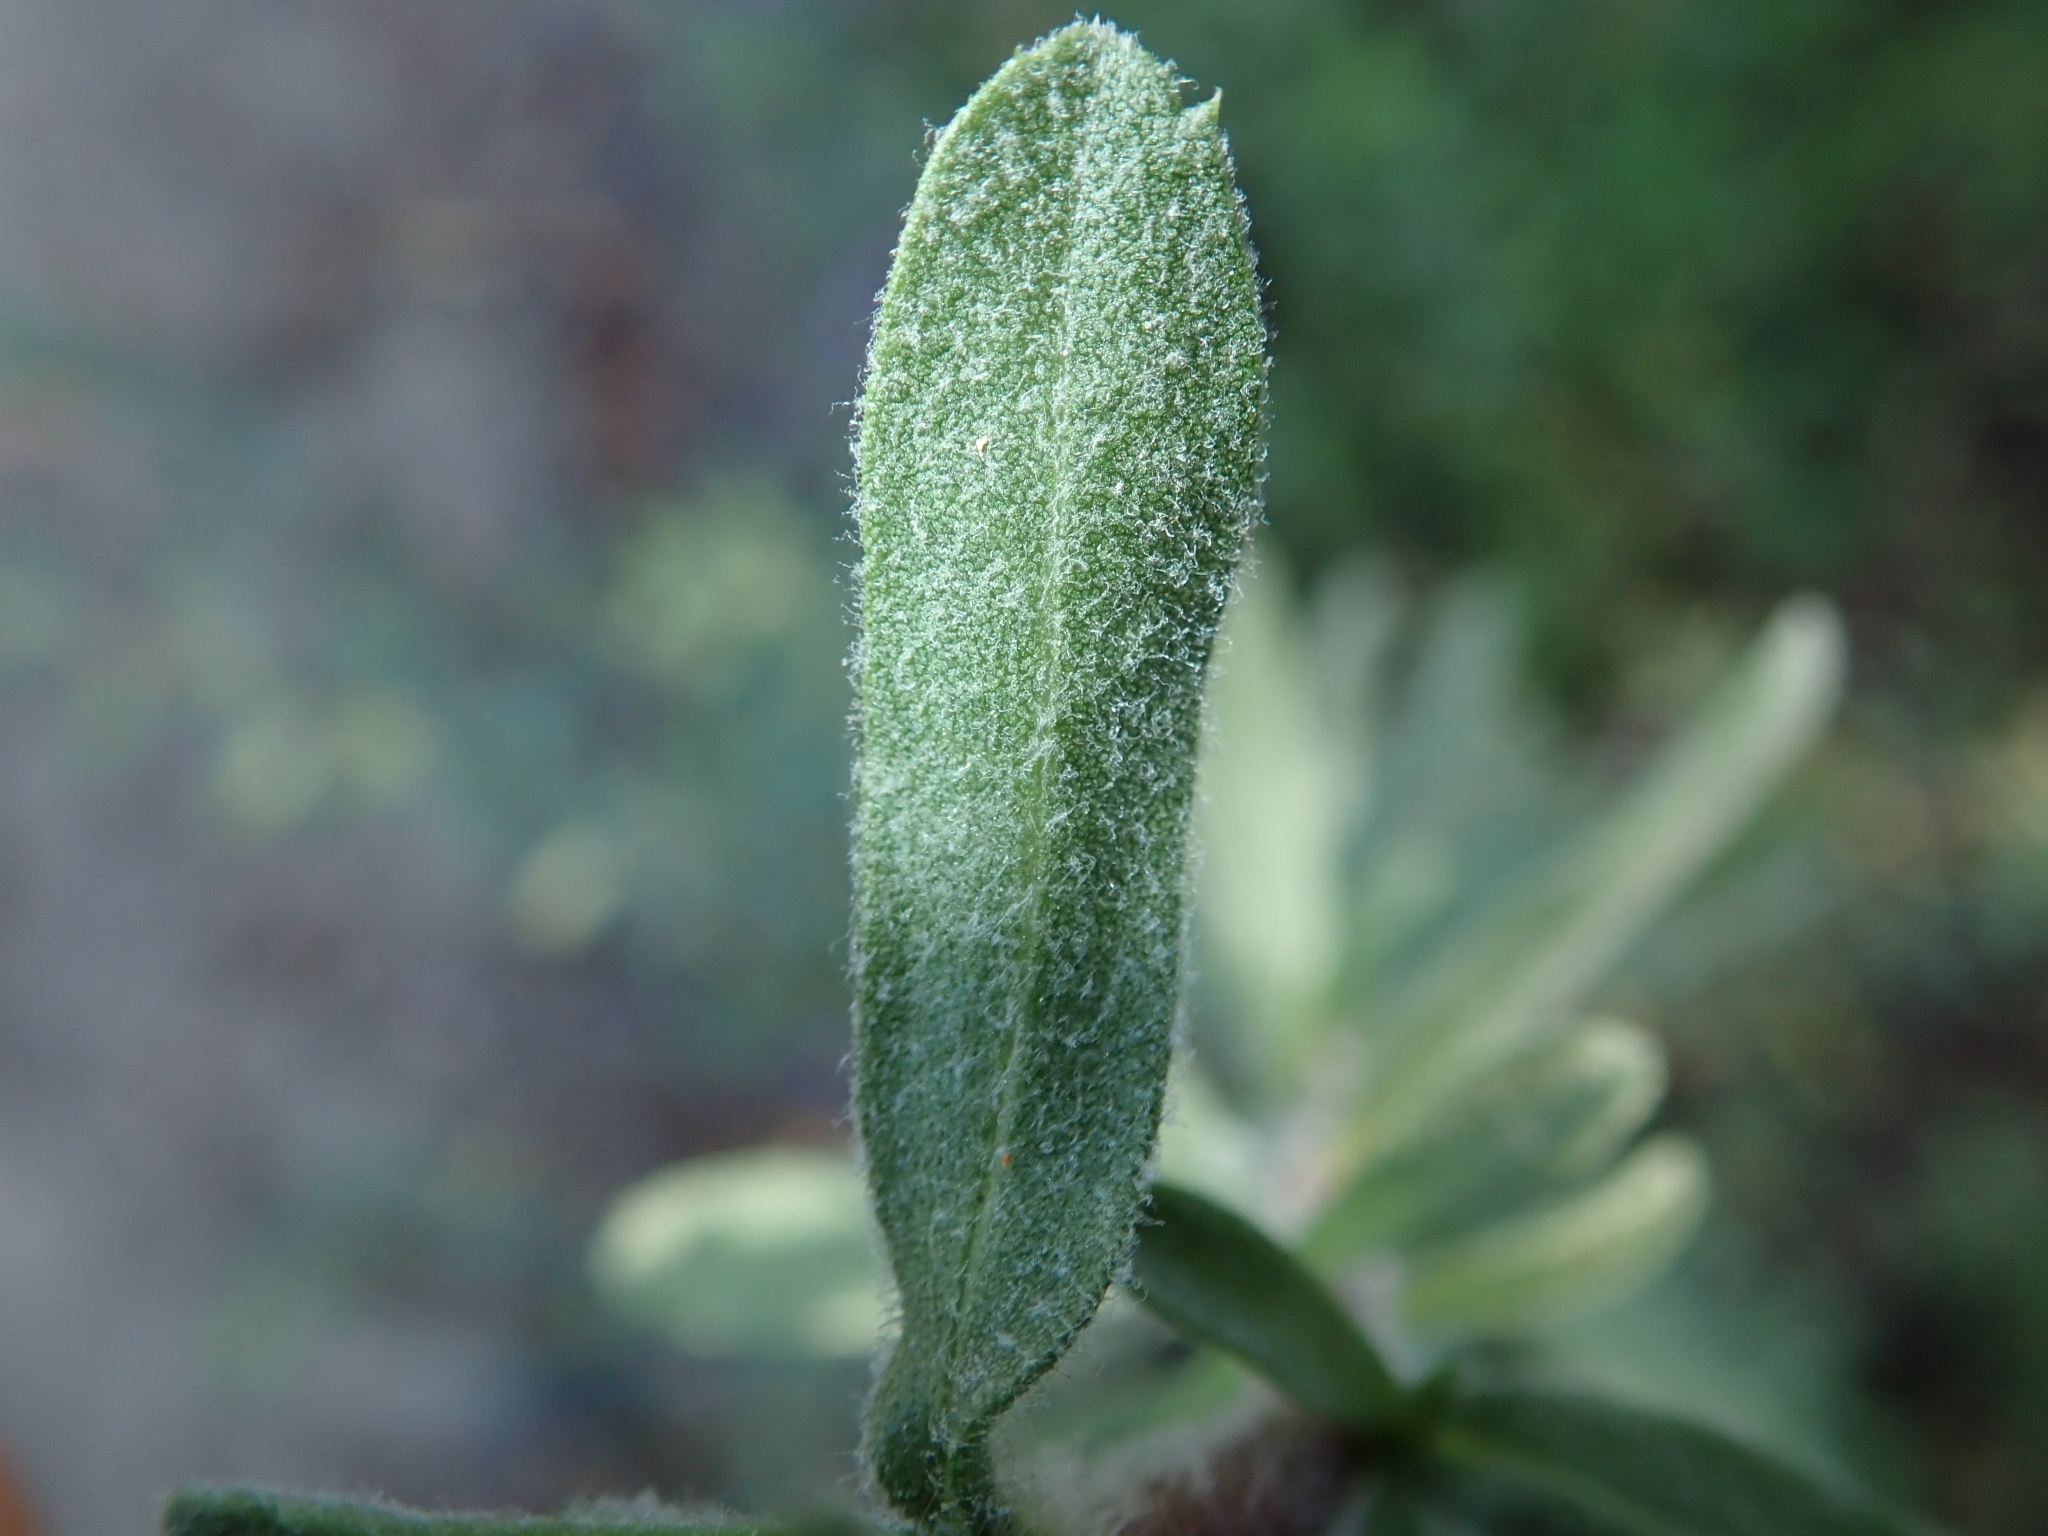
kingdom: Plantae
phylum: Tracheophyta
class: Magnoliopsida
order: Asterales
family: Asteraceae
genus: Isocoma
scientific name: Isocoma menziesii
